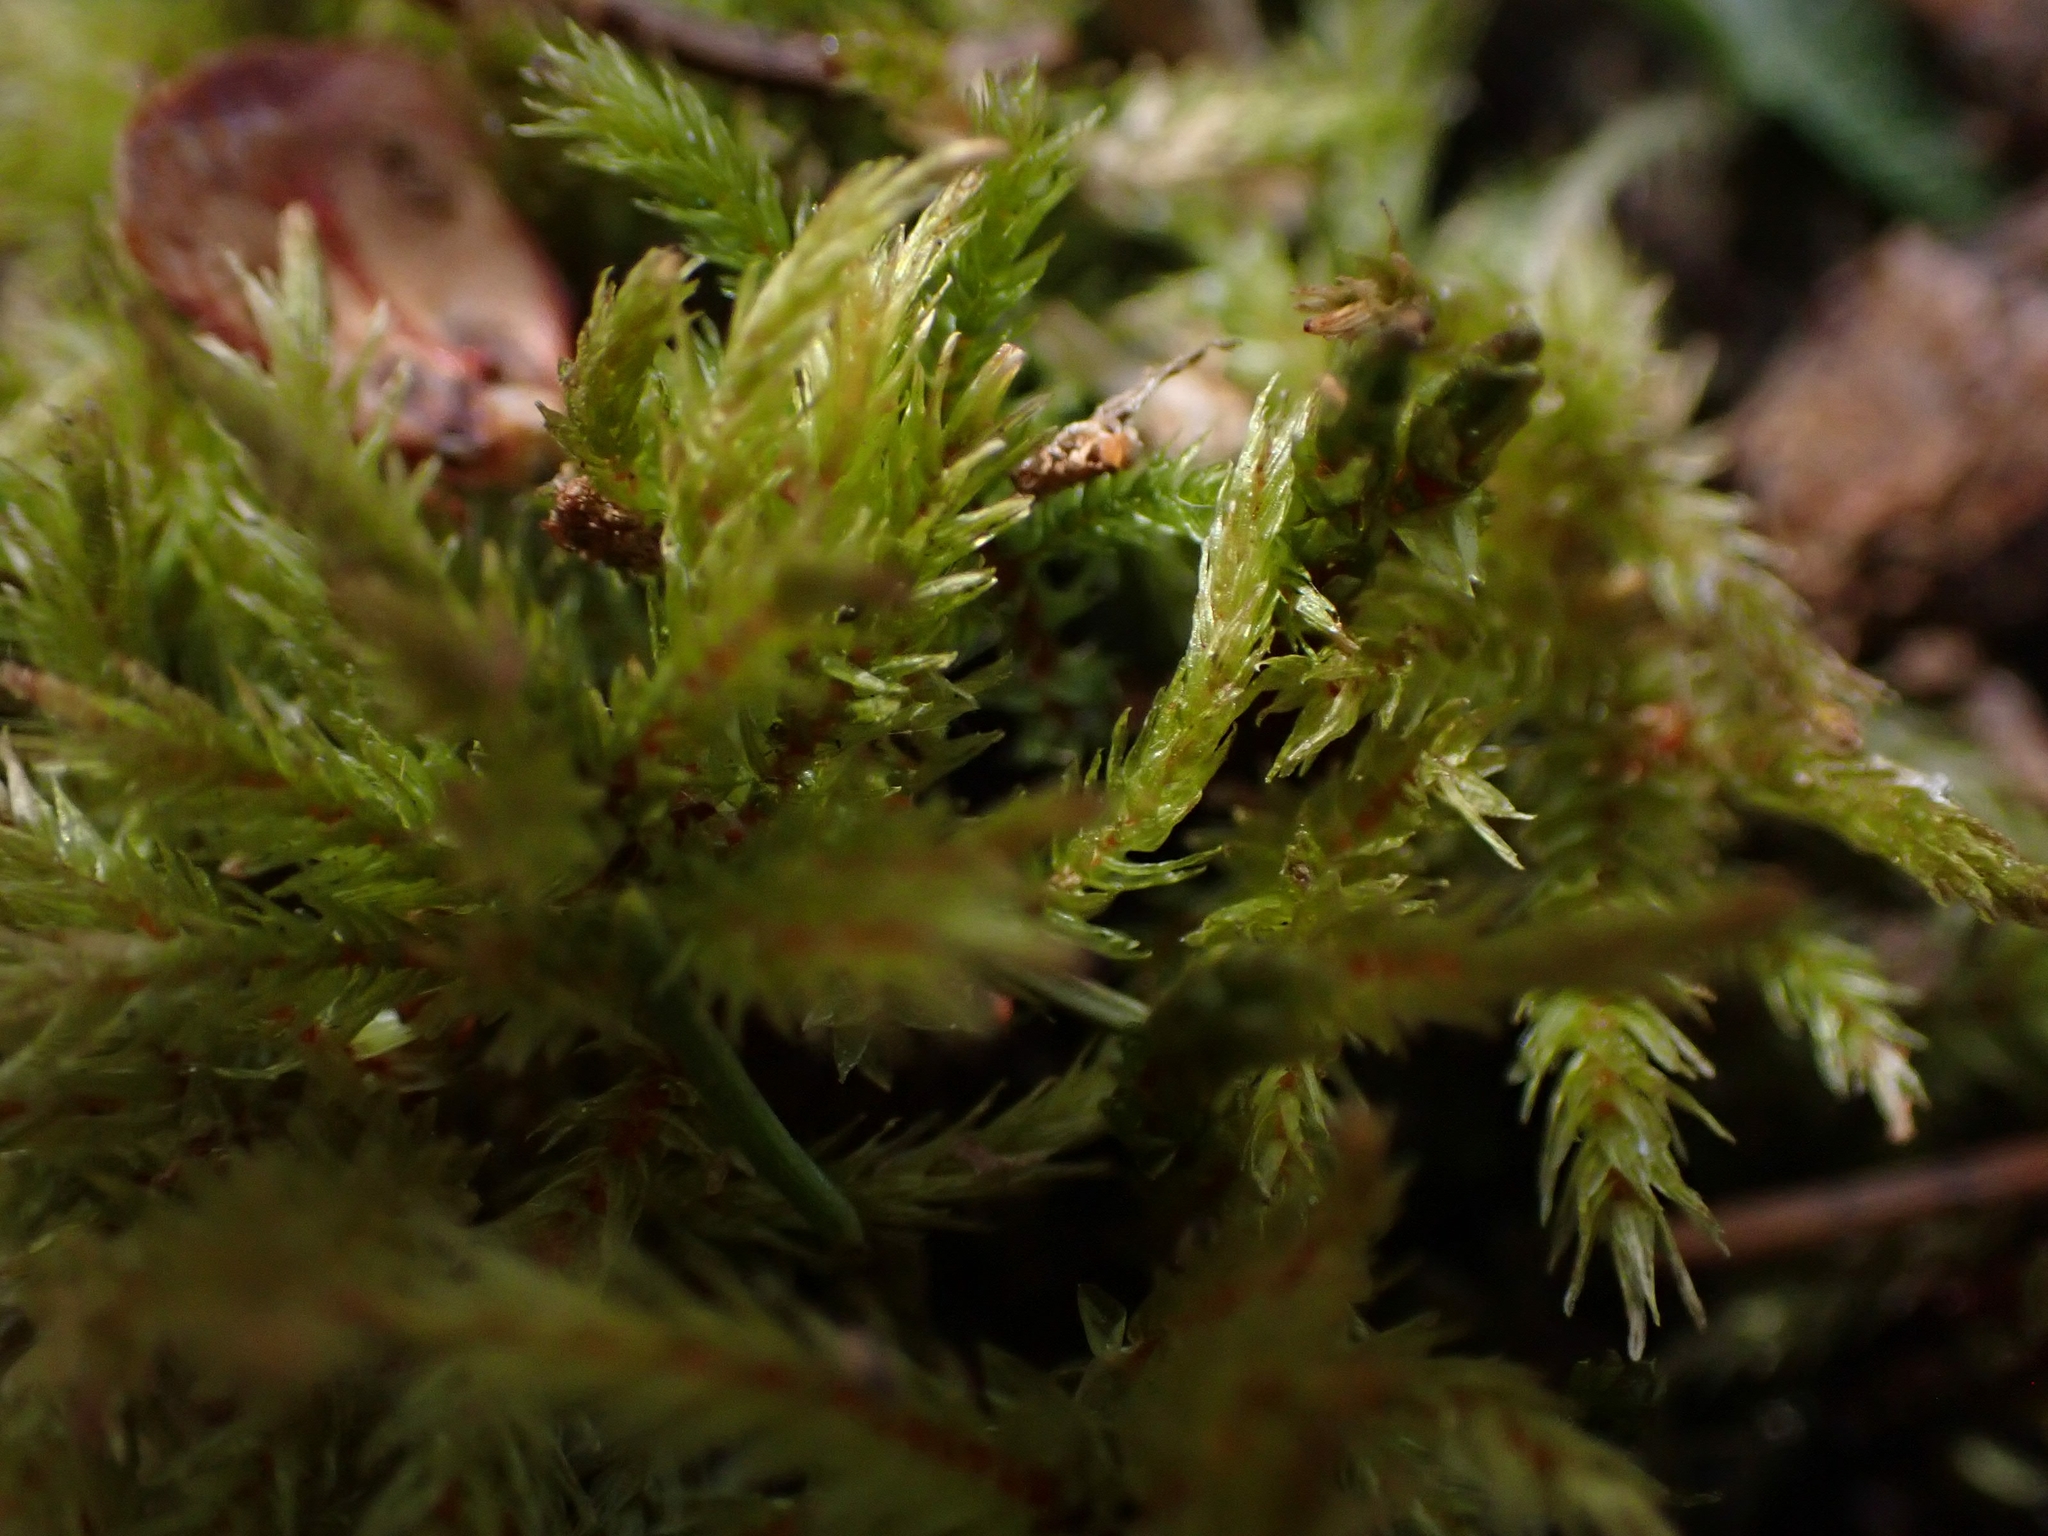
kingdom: Plantae
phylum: Bryophyta
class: Bryopsida
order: Hypnales
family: Climaciaceae
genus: Climacium
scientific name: Climacium dendroides
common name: Northern tree moss
